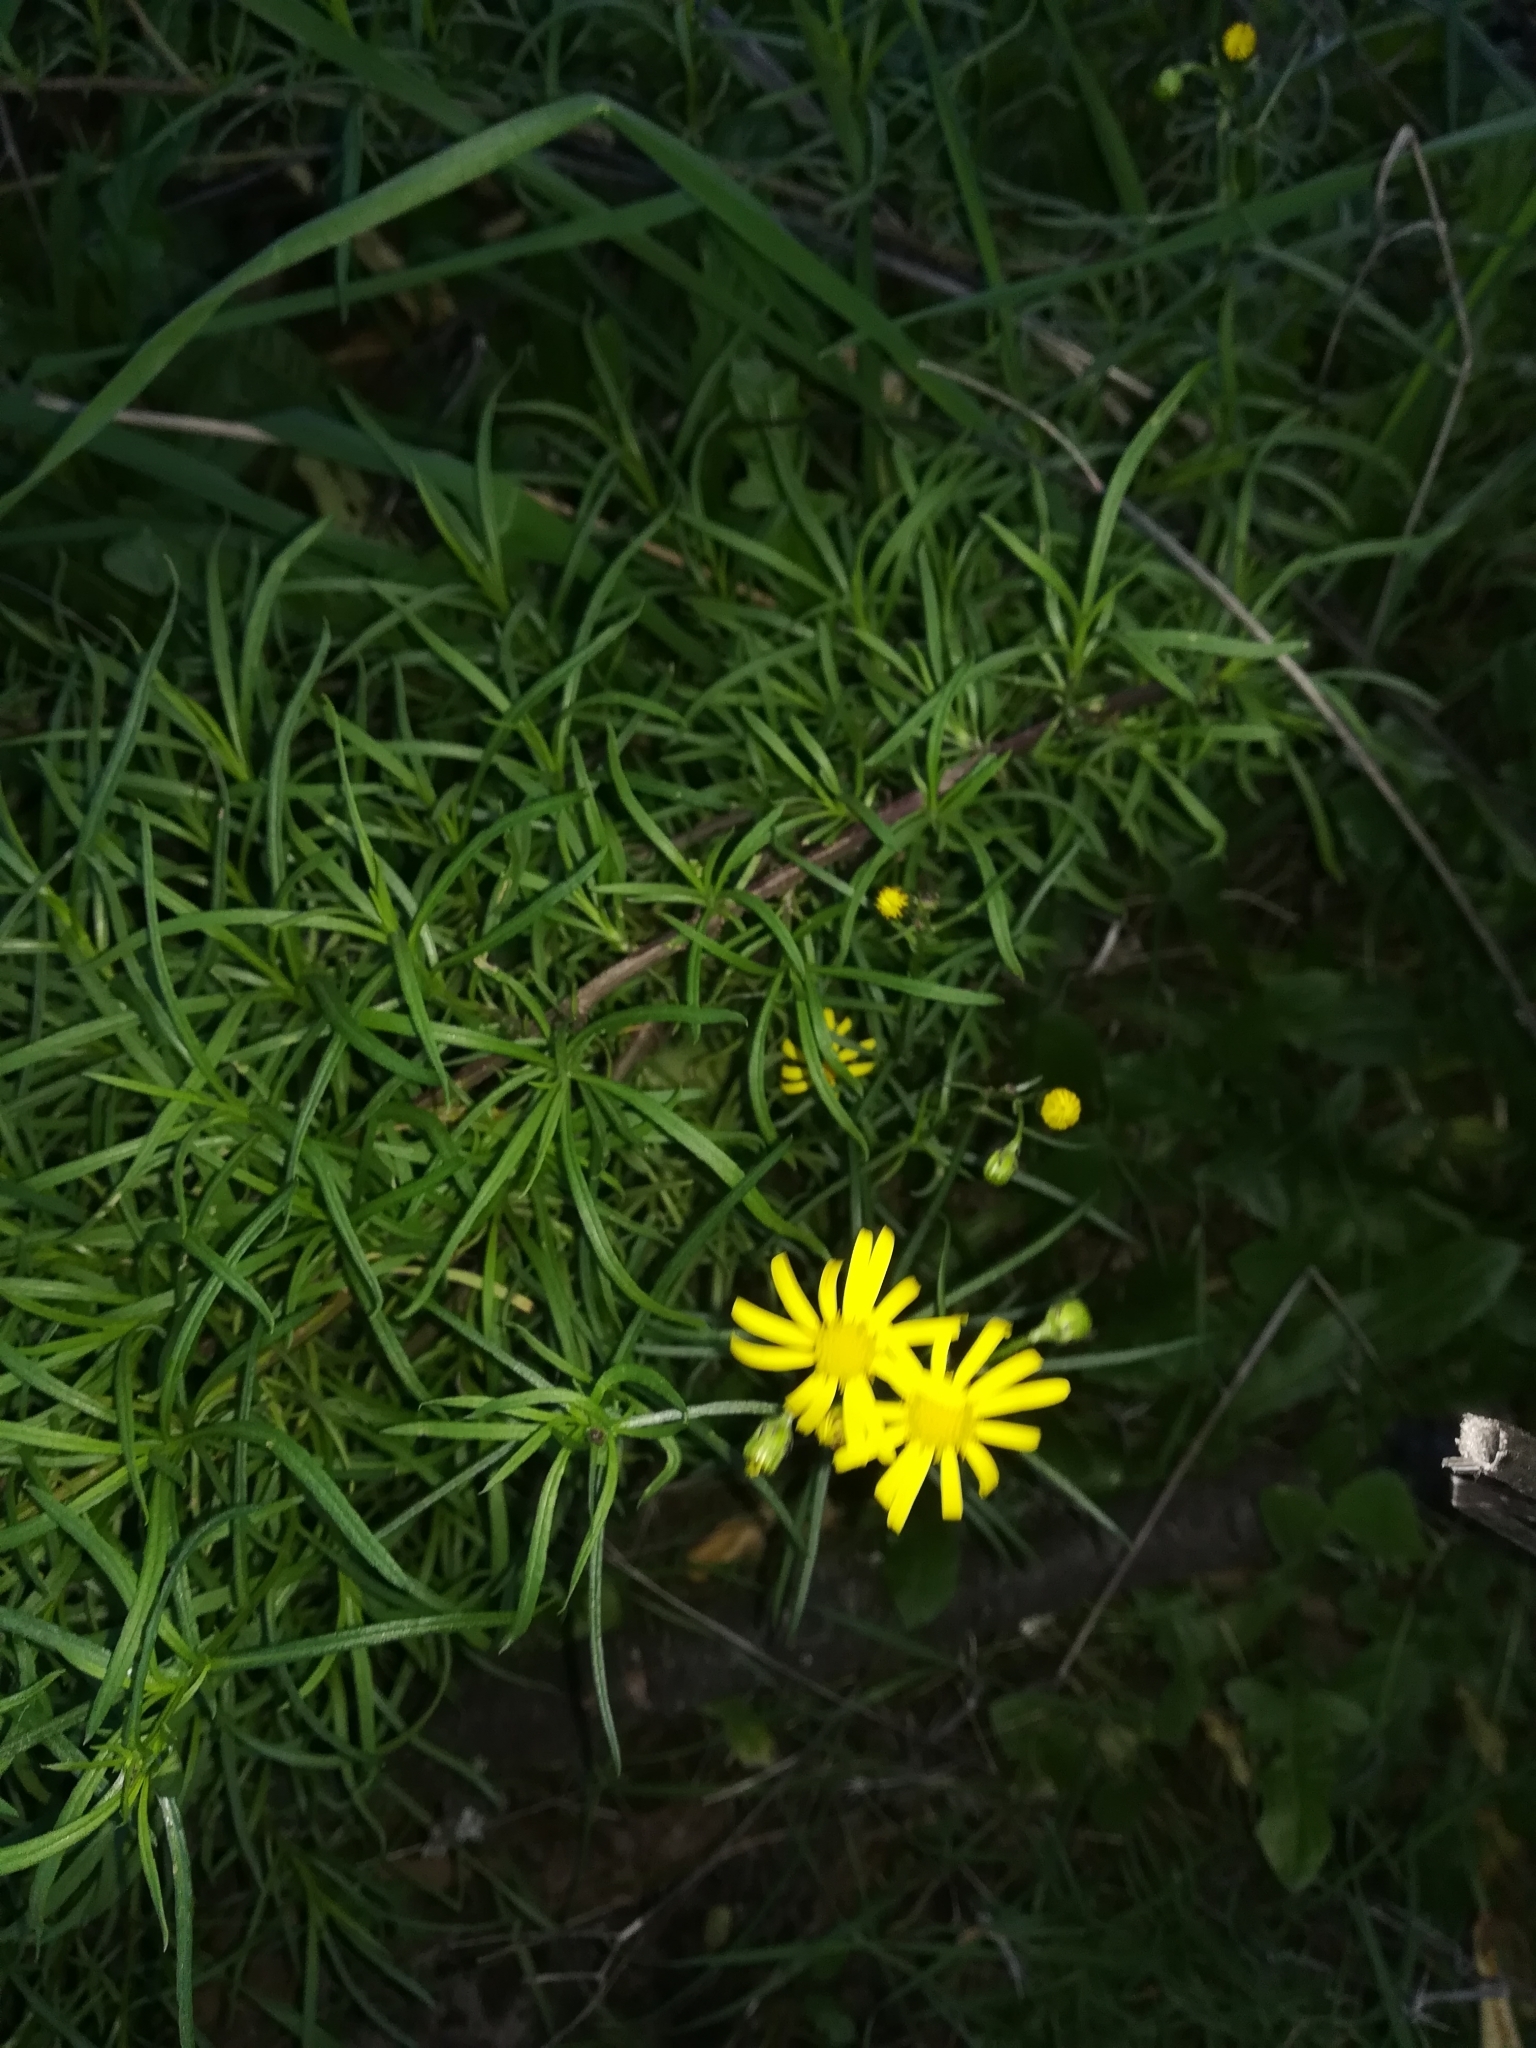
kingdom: Plantae
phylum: Tracheophyta
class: Magnoliopsida
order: Asterales
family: Asteraceae
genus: Senecio
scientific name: Senecio inaequidens
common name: Narrow-leaved ragwort
